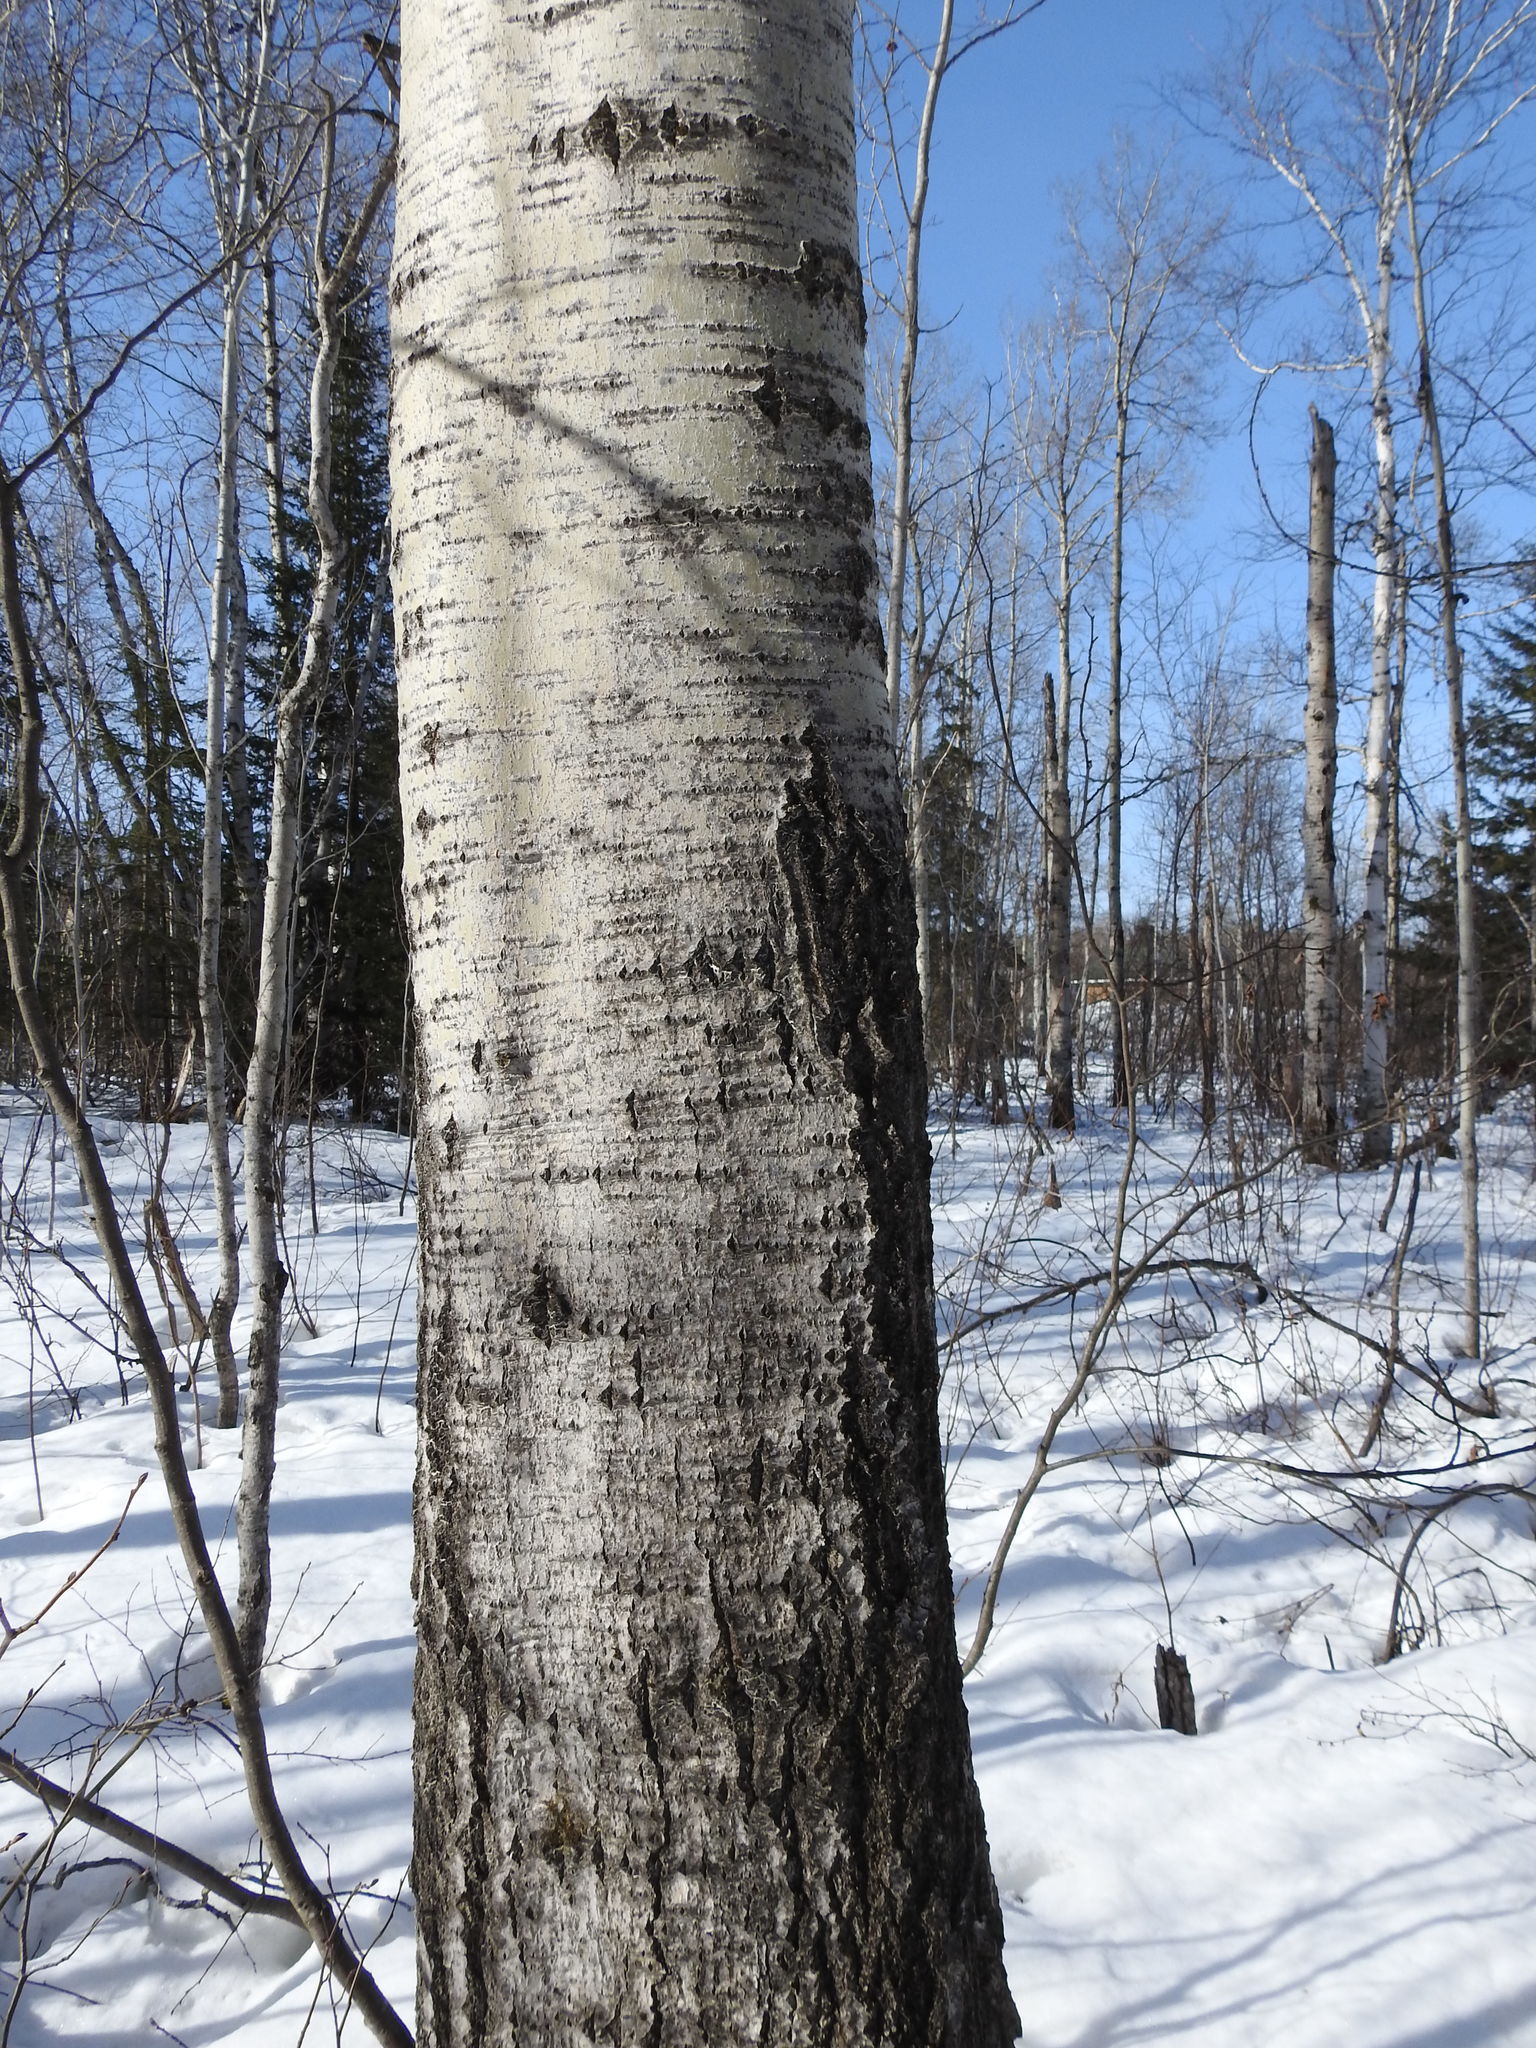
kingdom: Plantae
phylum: Tracheophyta
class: Magnoliopsida
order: Malpighiales
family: Salicaceae
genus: Populus
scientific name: Populus tremuloides
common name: Quaking aspen
